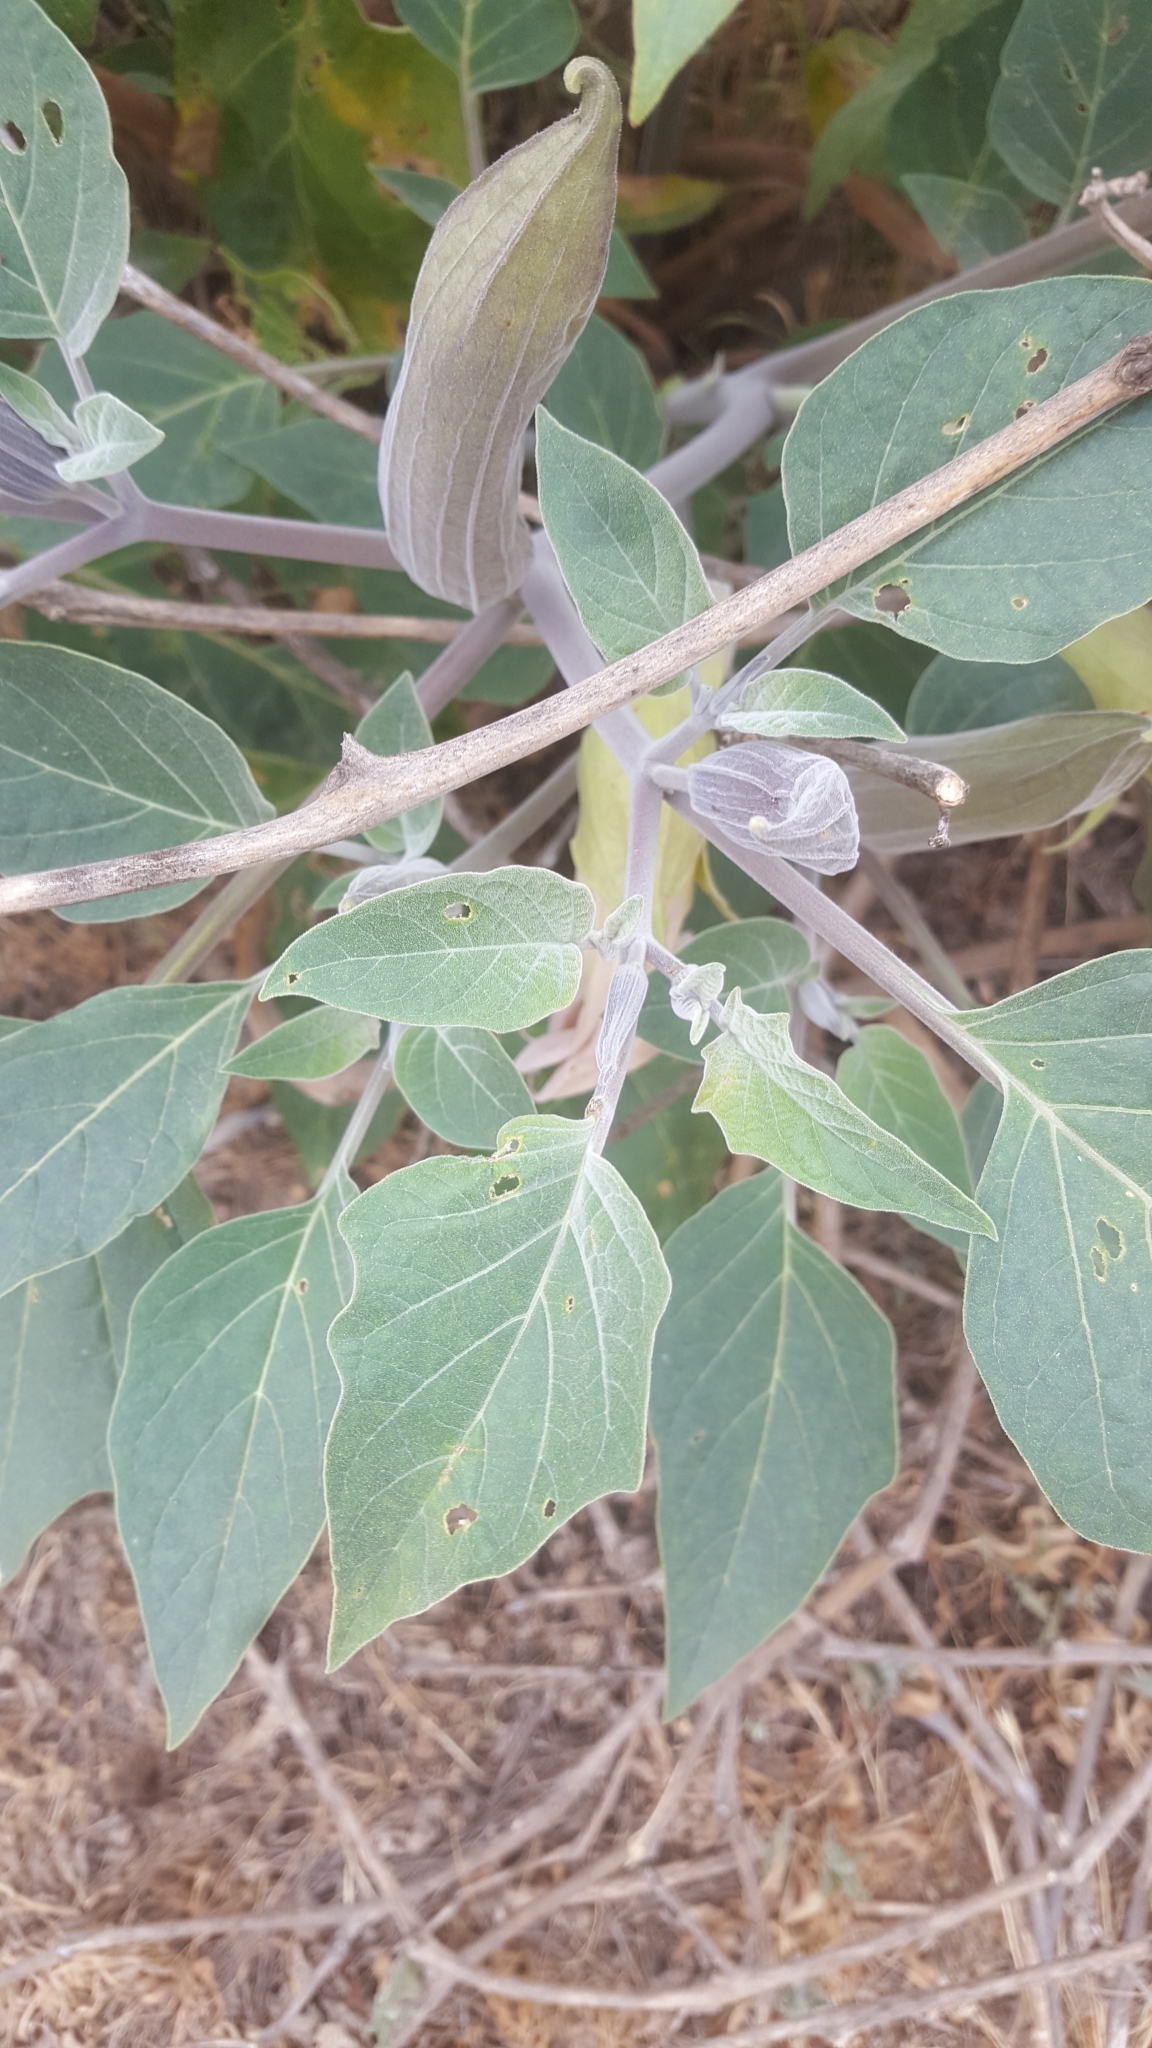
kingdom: Plantae
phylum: Tracheophyta
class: Magnoliopsida
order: Solanales
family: Solanaceae
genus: Datura
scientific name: Datura wrightii
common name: Sacred thorn-apple
